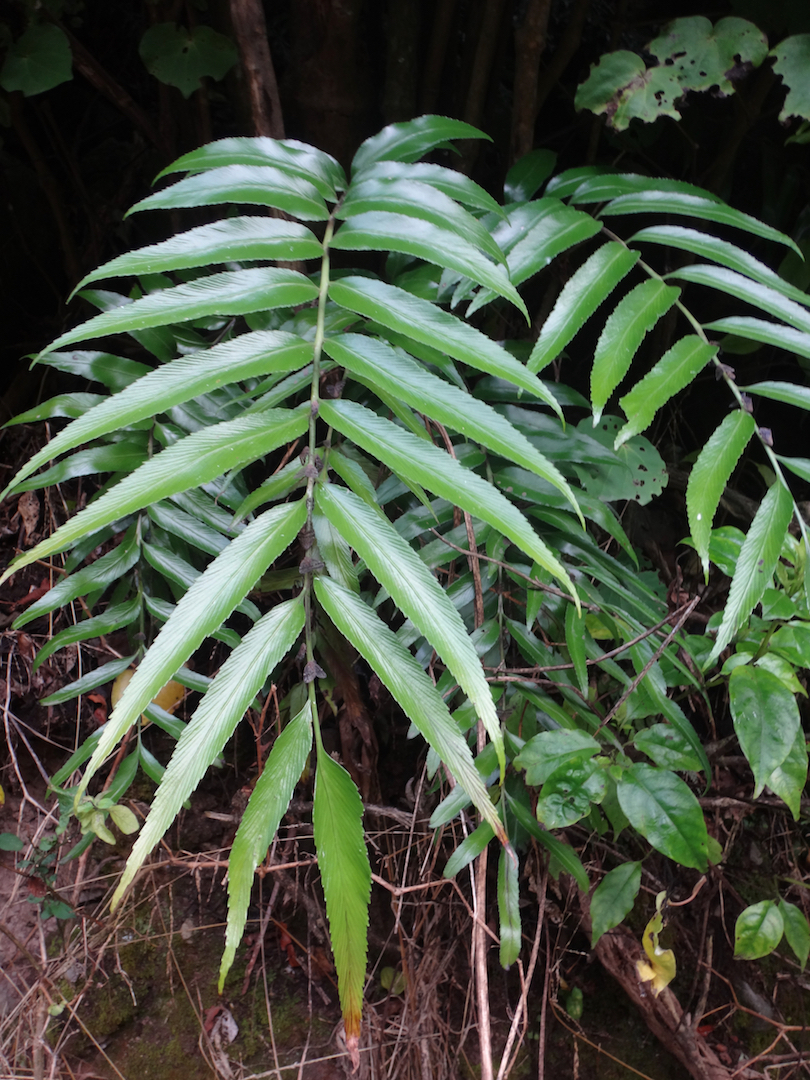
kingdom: Plantae
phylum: Tracheophyta
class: Polypodiopsida
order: Polypodiales
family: Aspleniaceae
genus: Asplenium
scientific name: Asplenium oblongifolium
